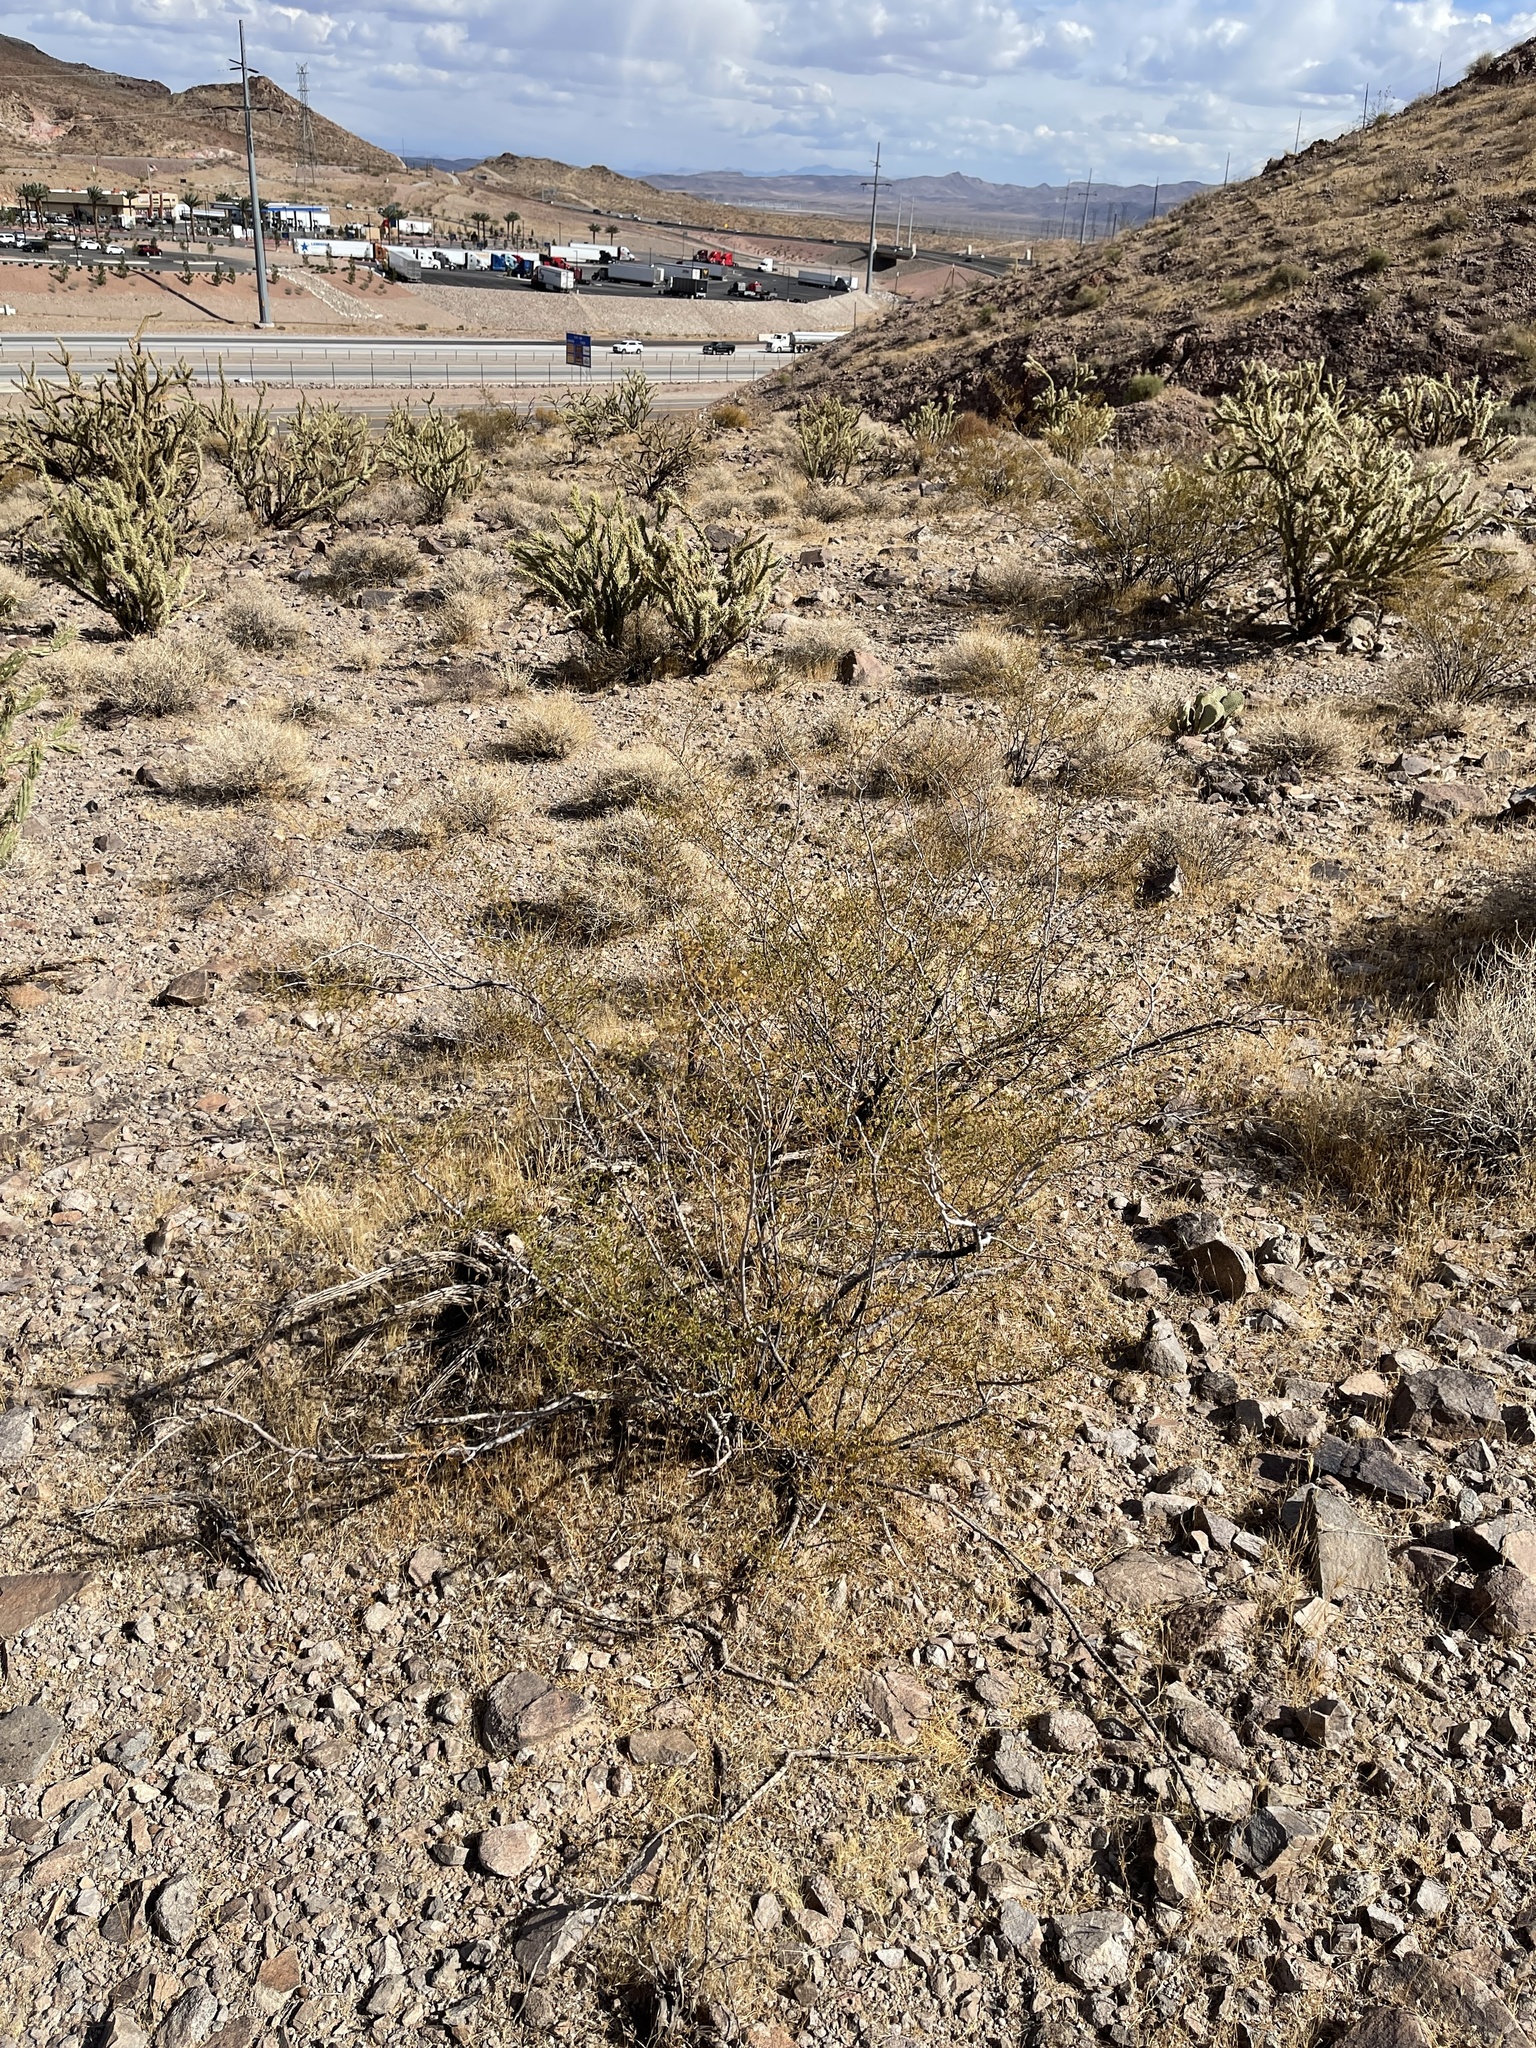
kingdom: Plantae
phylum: Tracheophyta
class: Magnoliopsida
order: Zygophyllales
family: Zygophyllaceae
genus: Larrea
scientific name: Larrea tridentata
